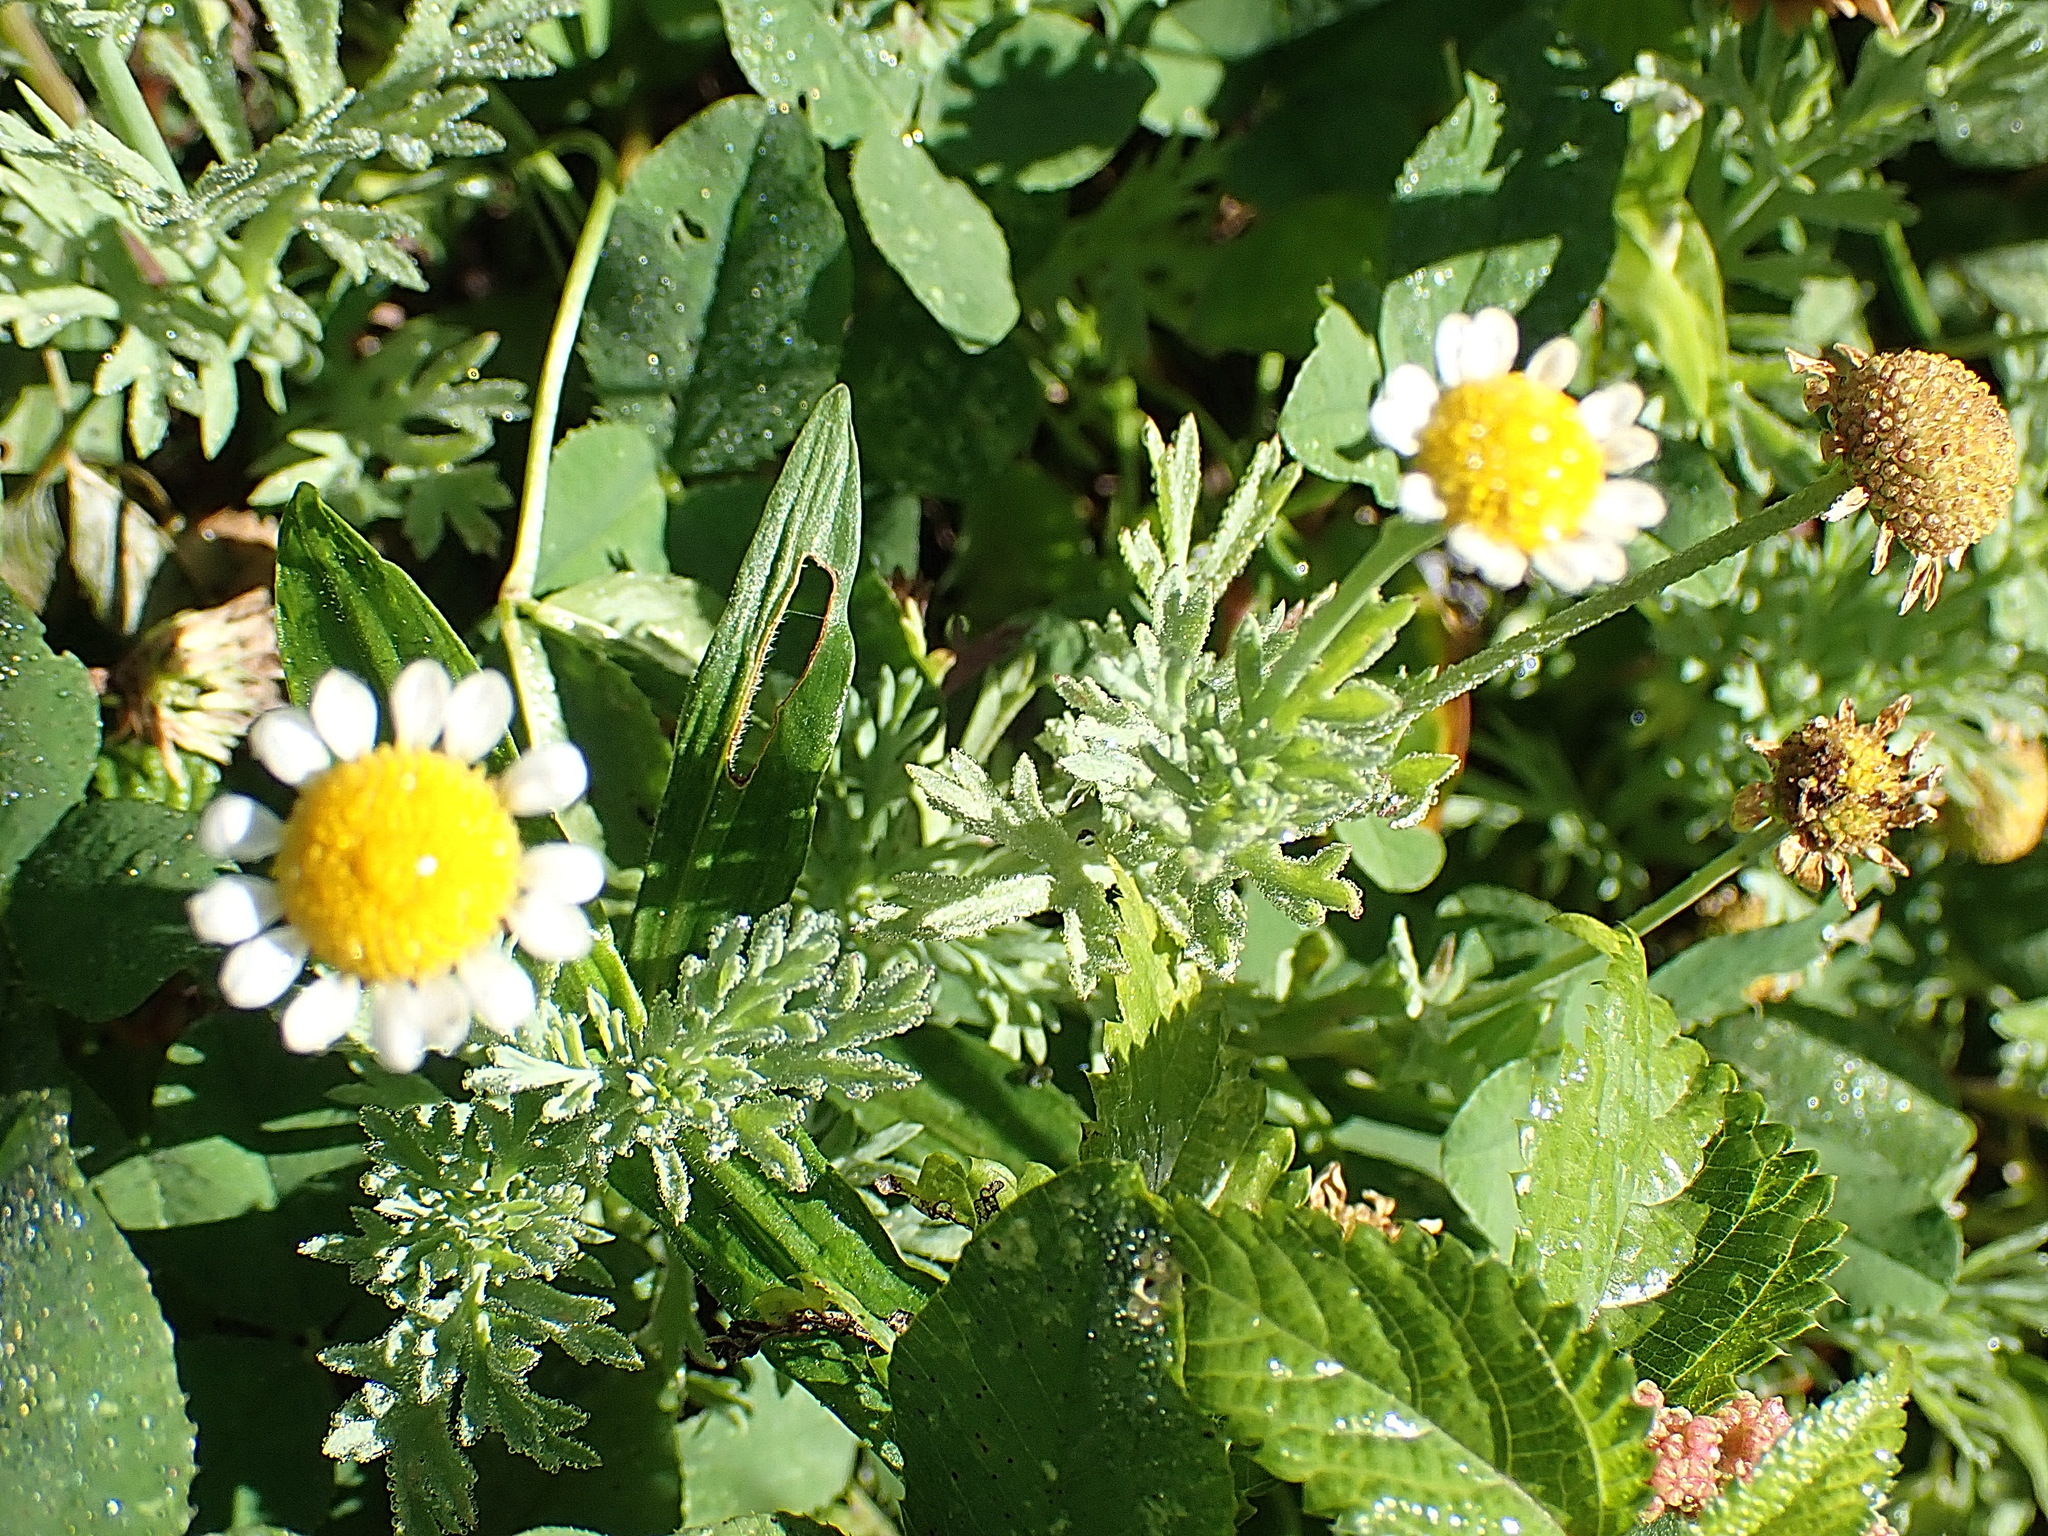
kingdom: Plantae
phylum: Tracheophyta
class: Magnoliopsida
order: Asterales
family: Asteraceae
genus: Cotula
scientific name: Cotula nigellifolia
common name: Staggerweed
